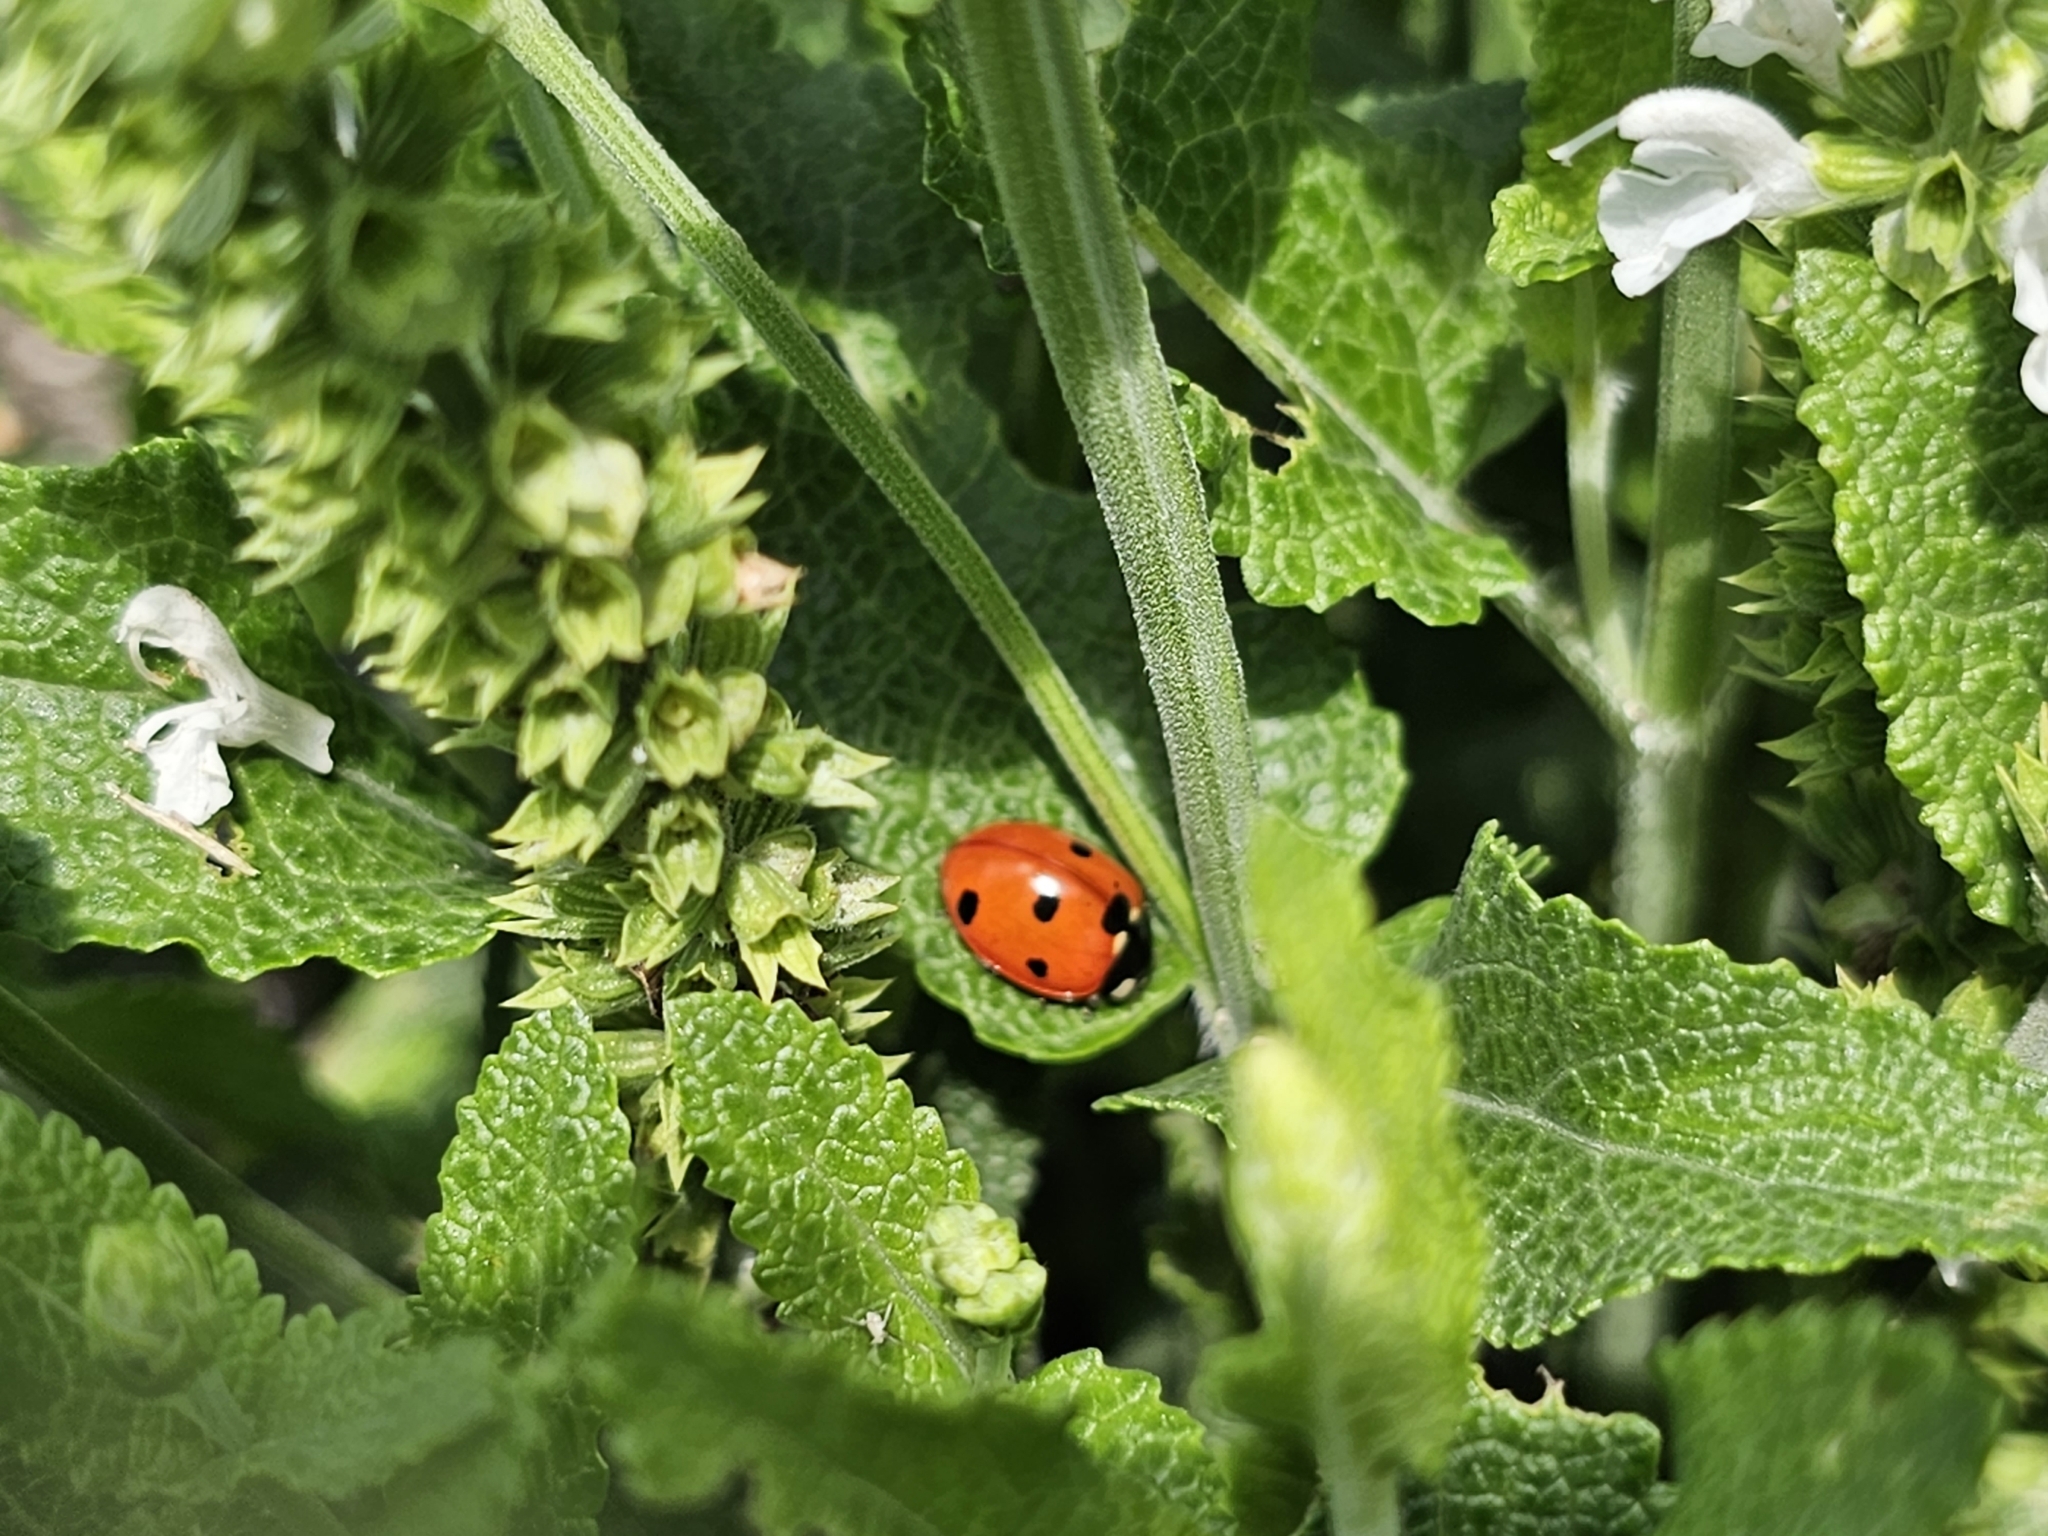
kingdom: Animalia
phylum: Arthropoda
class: Insecta
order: Coleoptera
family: Coccinellidae
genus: Coccinella
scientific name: Coccinella septempunctata
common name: Sevenspotted lady beetle
